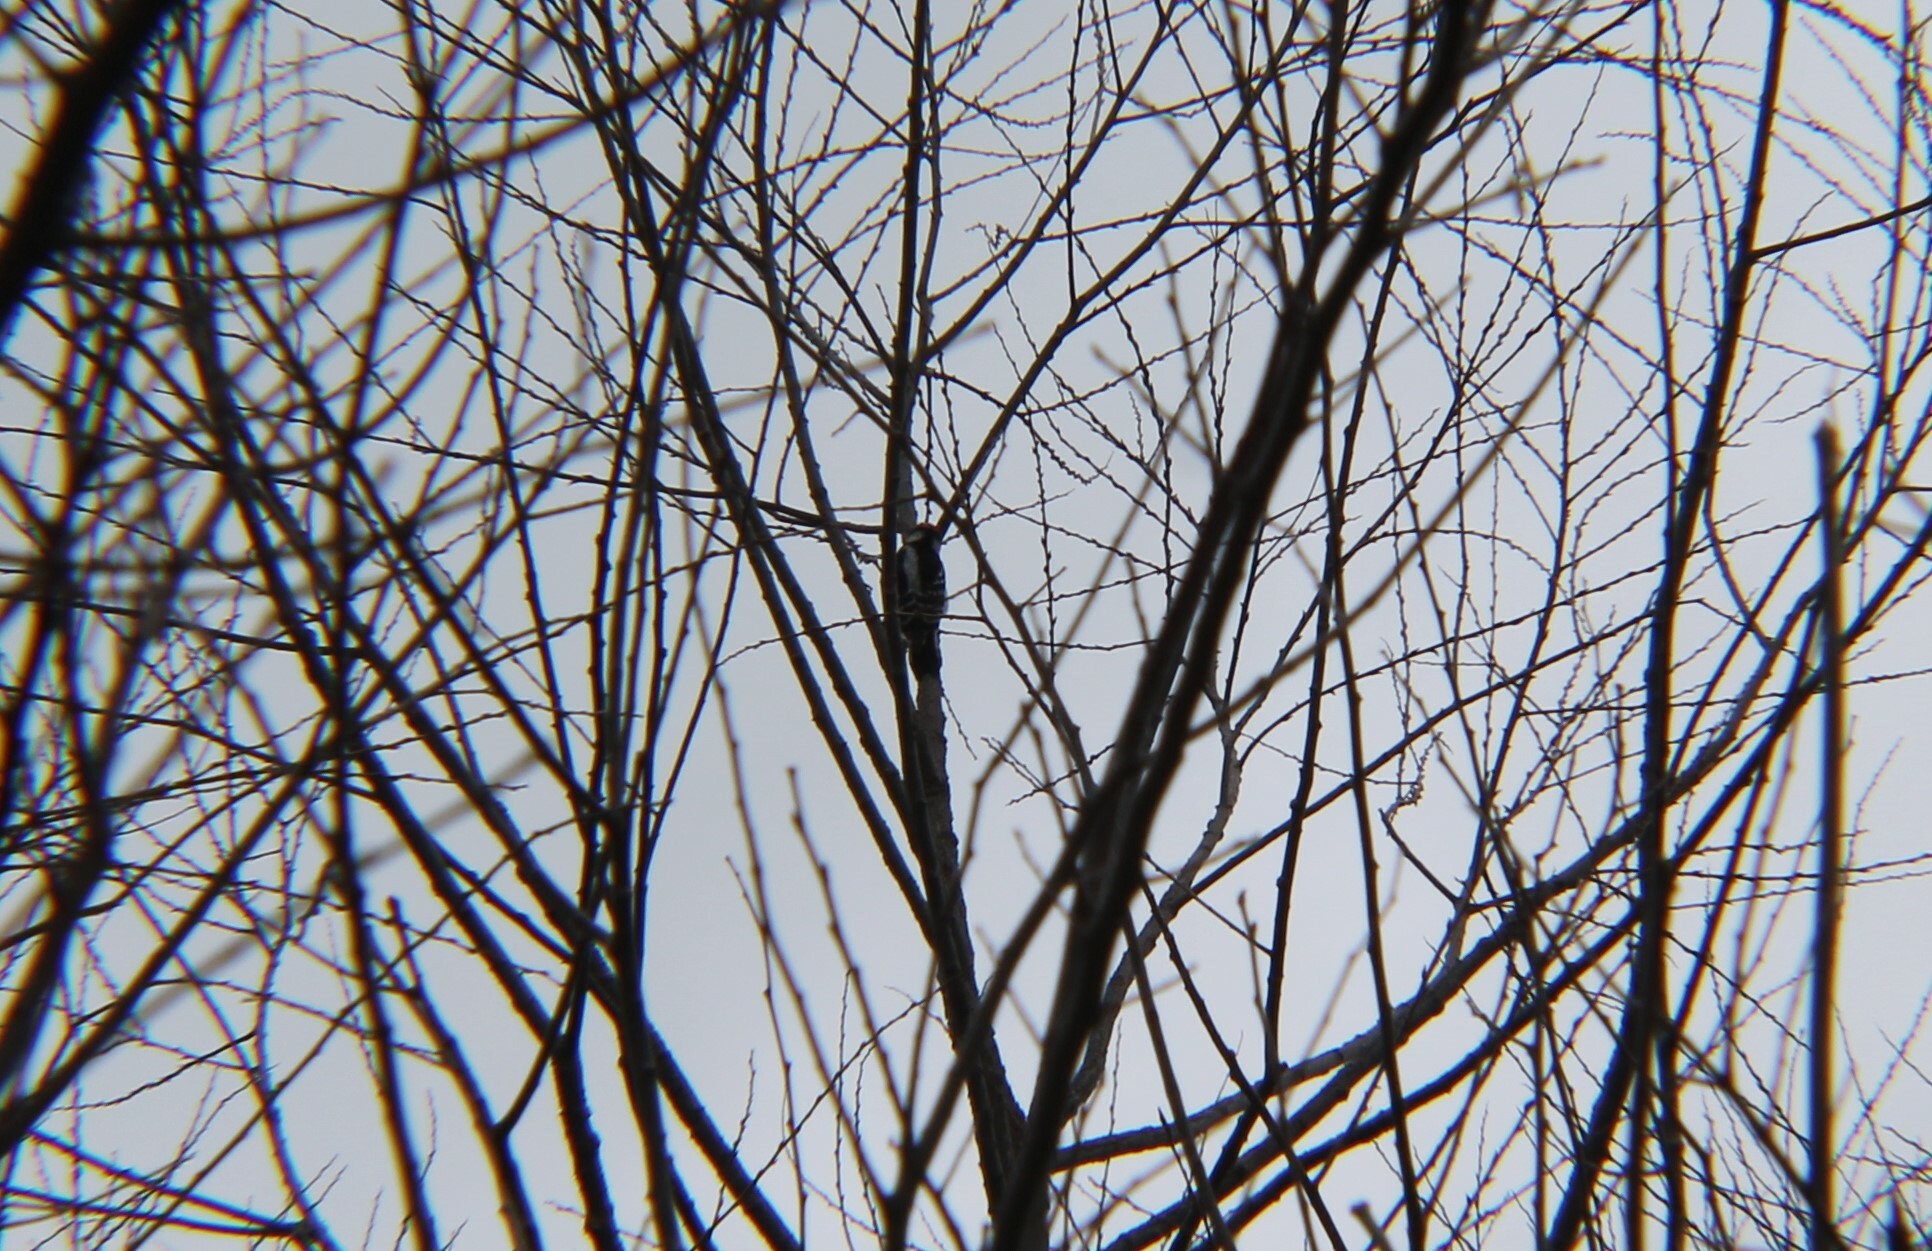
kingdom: Animalia
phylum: Chordata
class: Aves
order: Piciformes
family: Picidae
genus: Dryobates
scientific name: Dryobates pubescens
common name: Downy woodpecker
